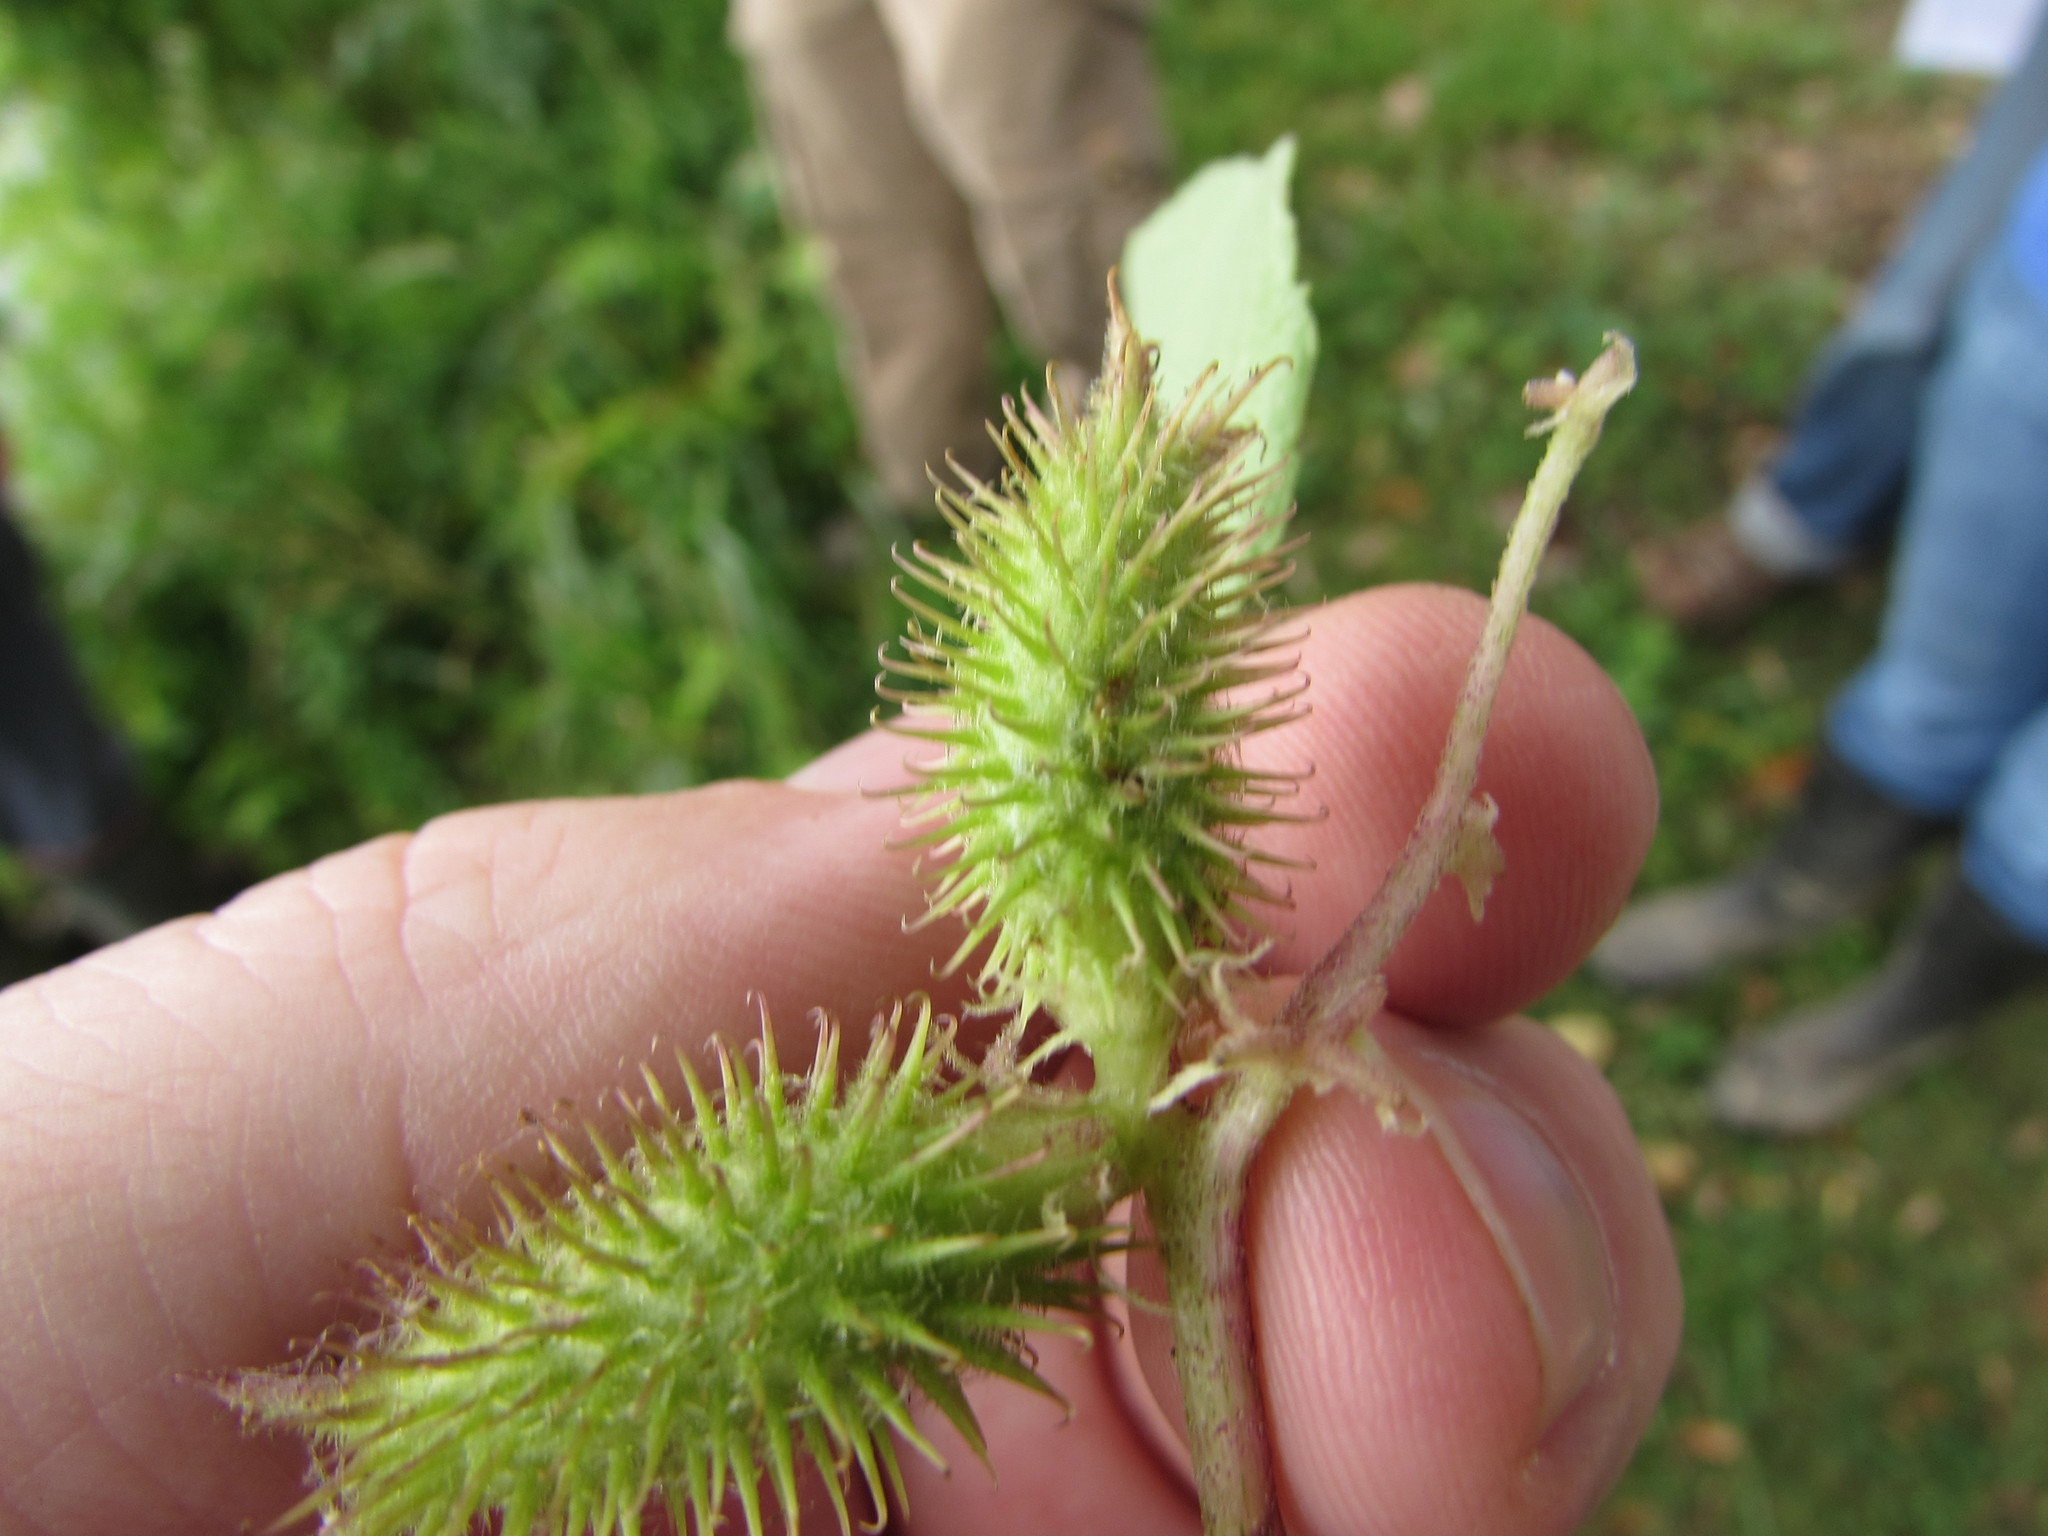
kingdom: Plantae
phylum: Tracheophyta
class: Magnoliopsida
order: Asterales
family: Asteraceae
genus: Xanthium
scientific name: Xanthium strumarium
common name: Rough cocklebur
